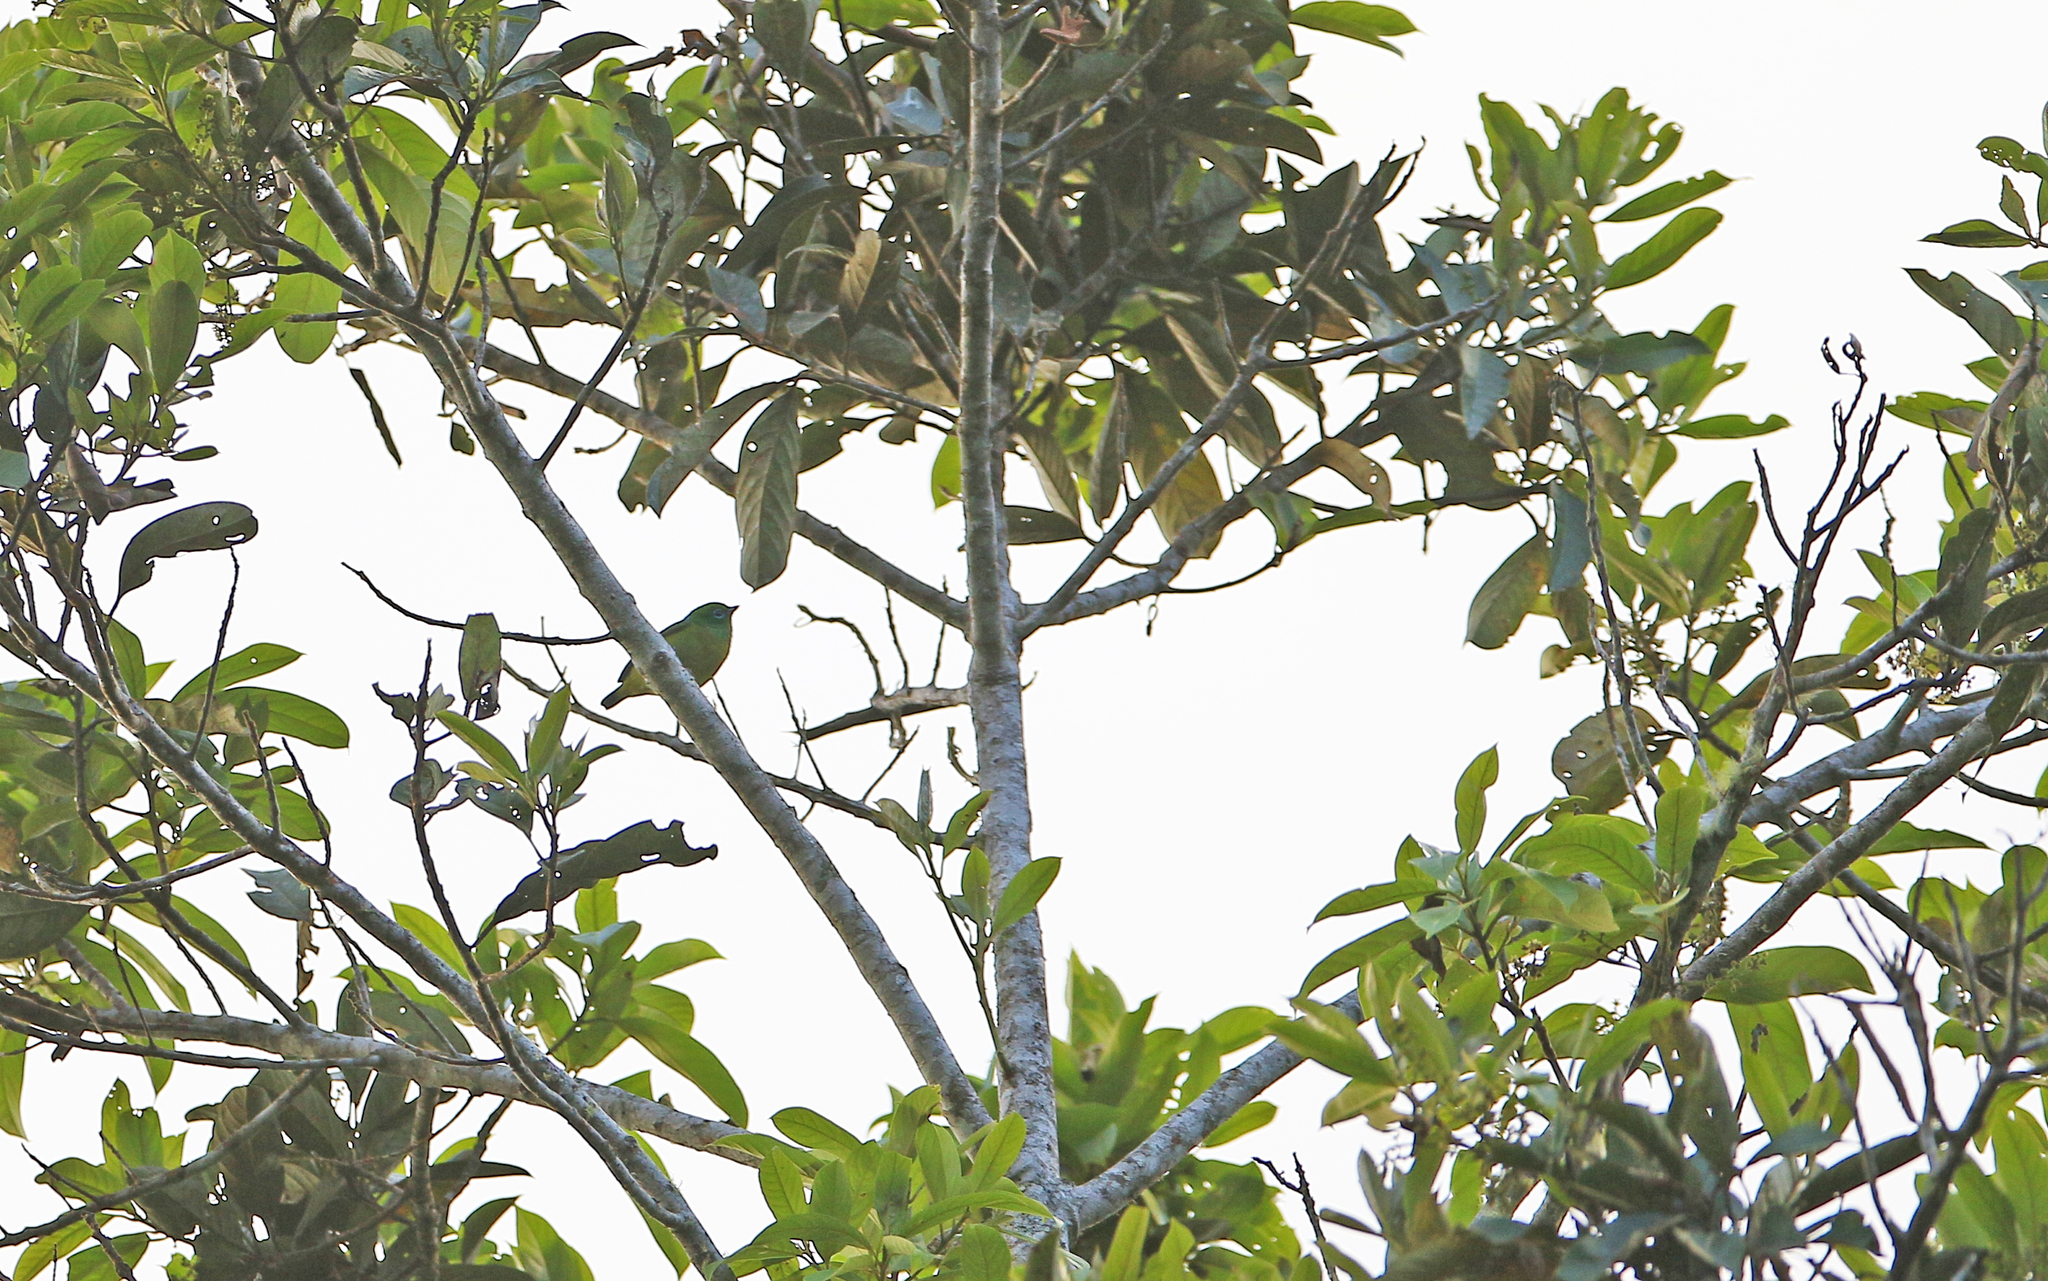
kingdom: Animalia
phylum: Chordata
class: Aves
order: Passeriformes
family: Fringillidae
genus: Chlorophonia
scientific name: Chlorophonia cyanea
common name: Blue-naped chlorophonia
